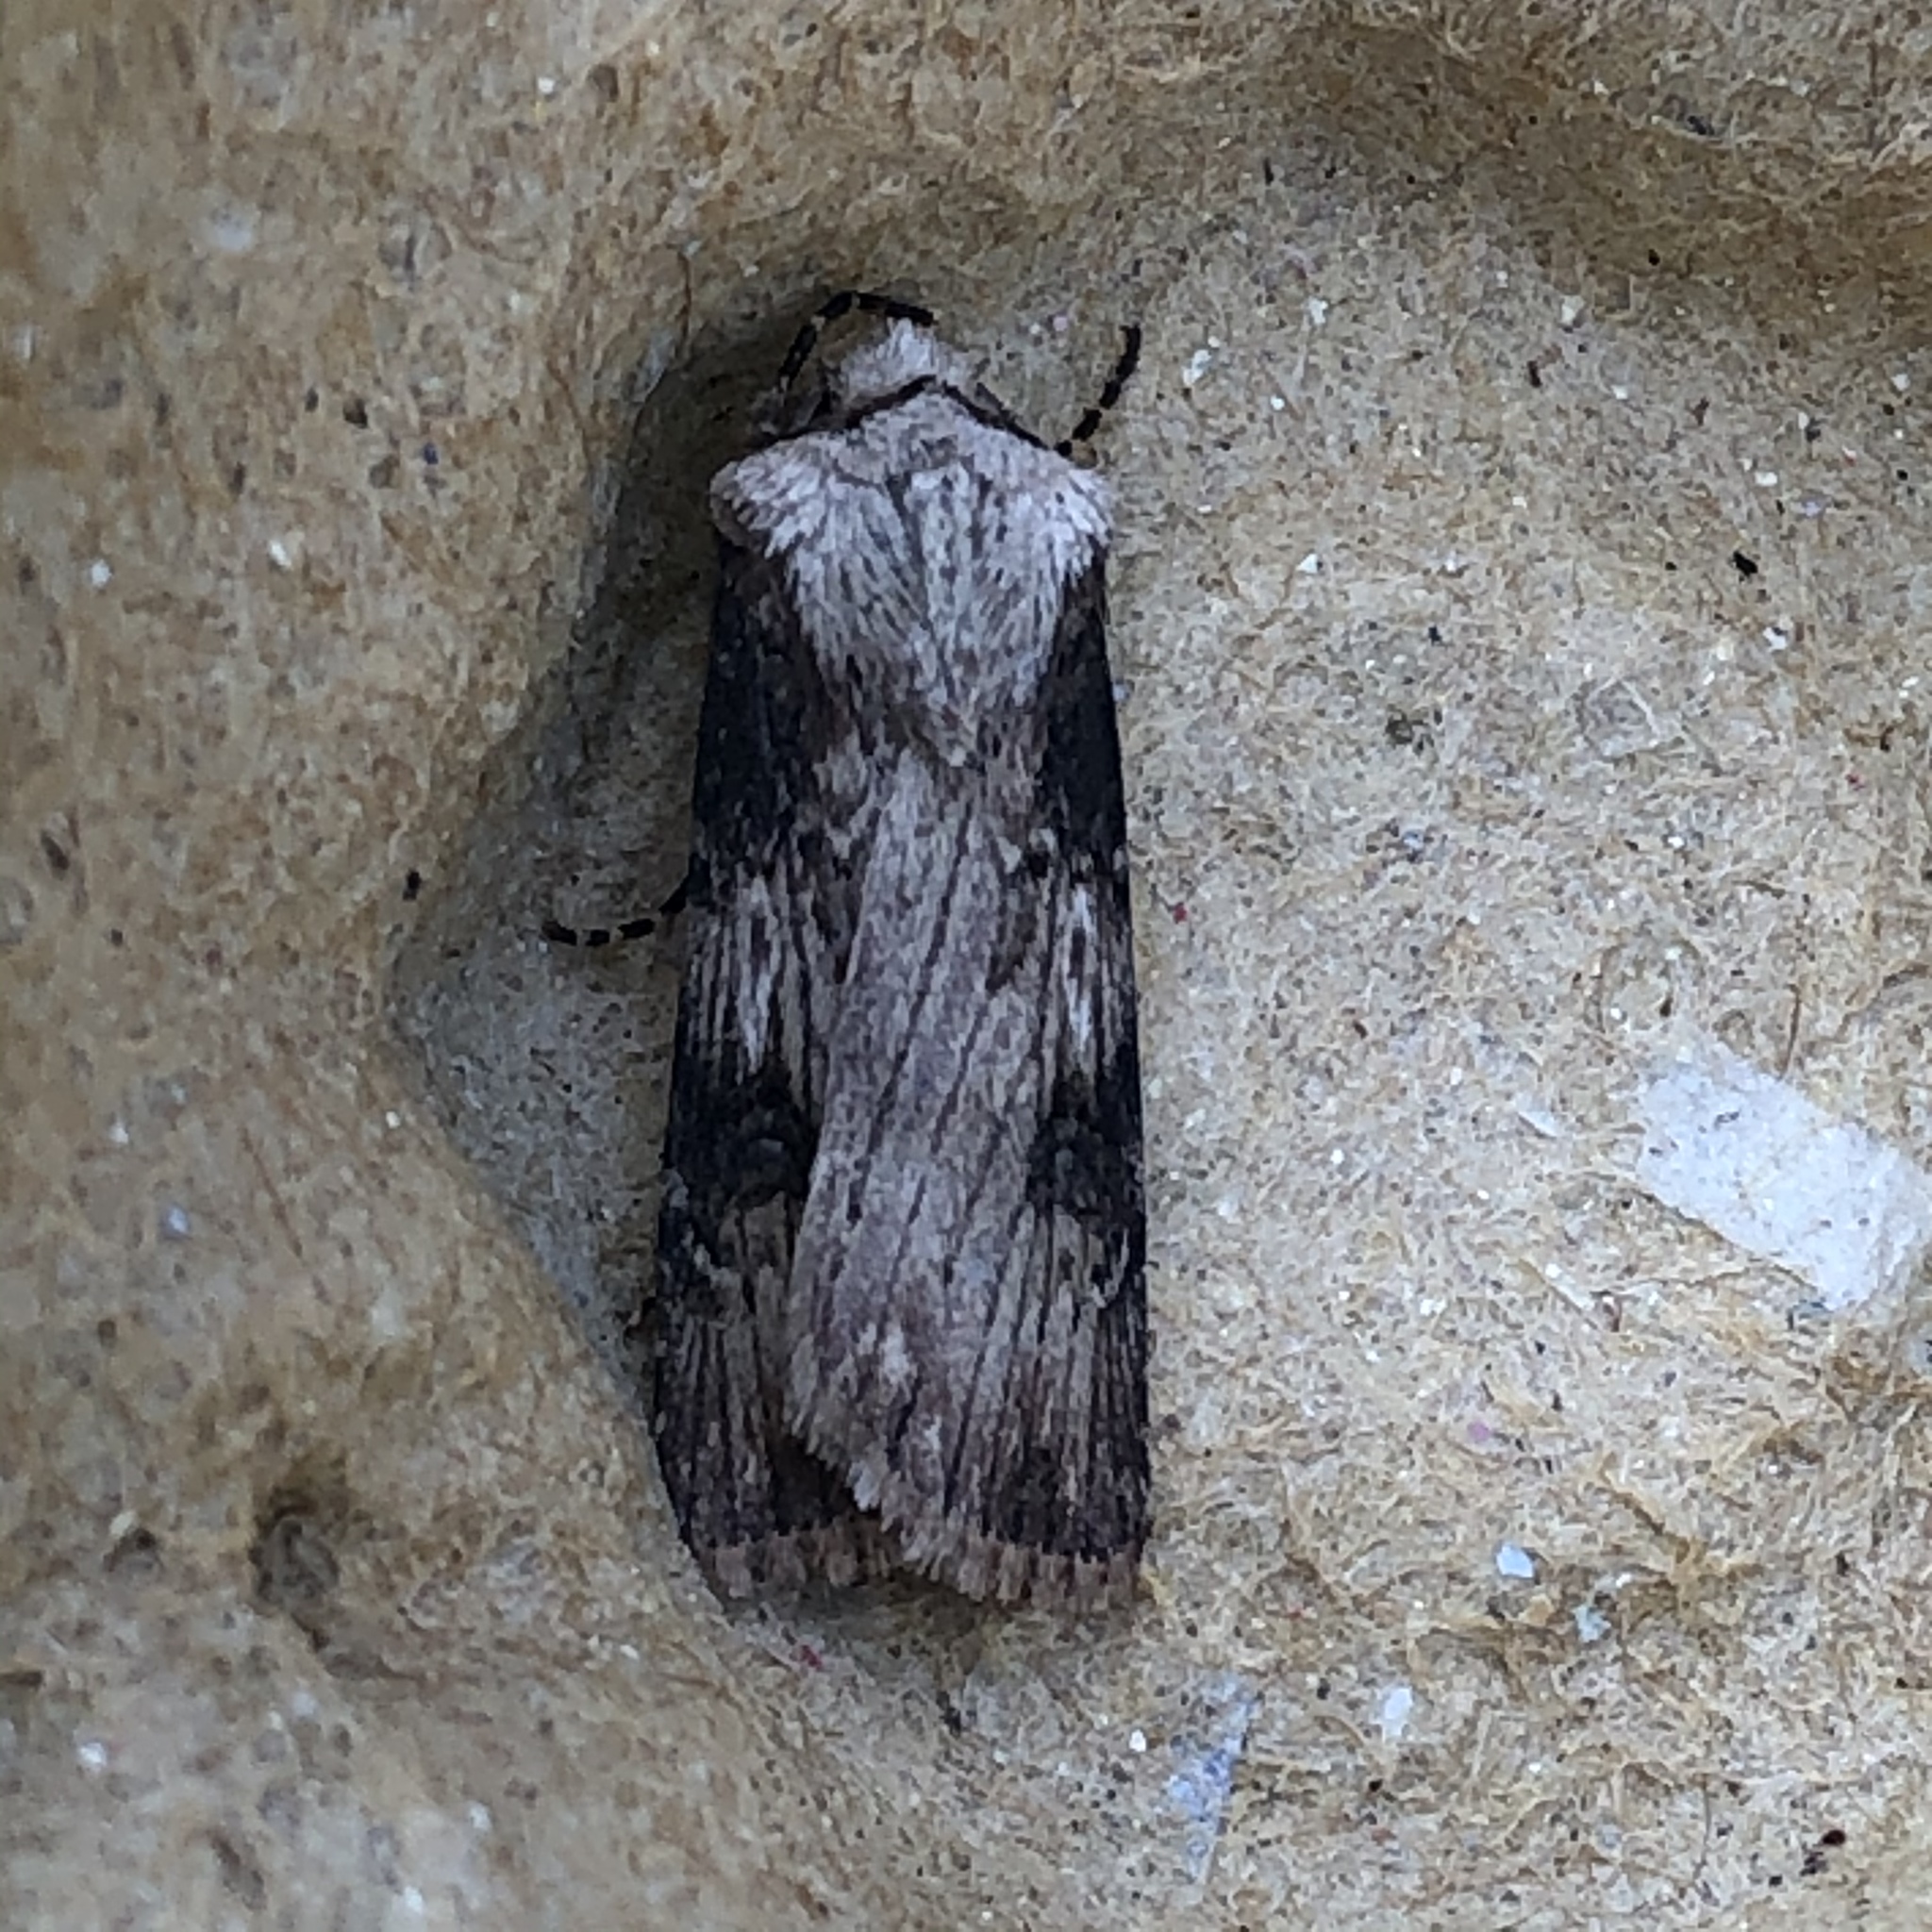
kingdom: Animalia
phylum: Arthropoda
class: Insecta
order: Lepidoptera
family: Noctuidae
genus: Agrotis
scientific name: Agrotis puta
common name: Shuttle-shaped dart
